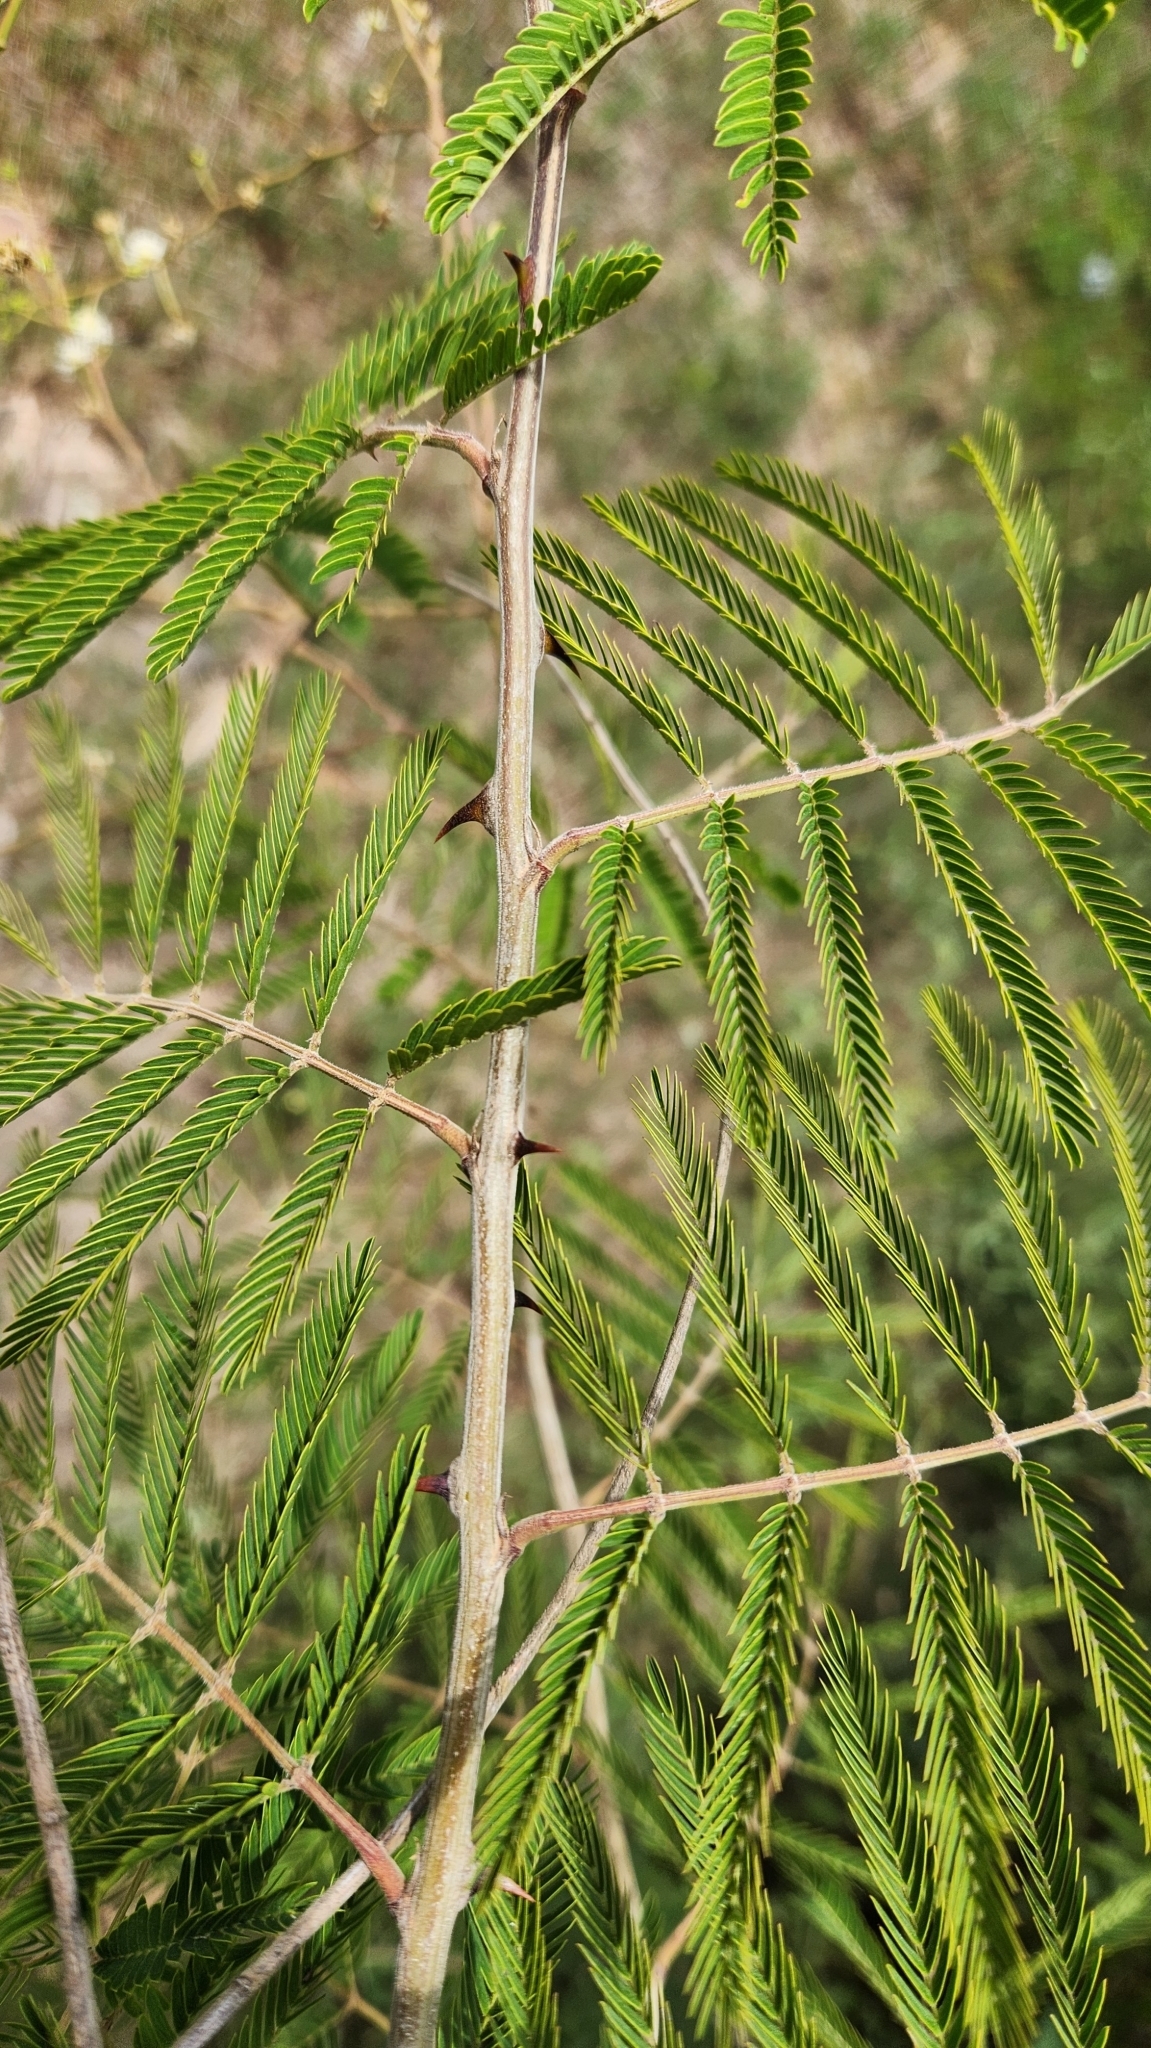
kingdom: Plantae
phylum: Tracheophyta
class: Magnoliopsida
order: Fabales
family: Fabaceae
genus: Mimosa
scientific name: Mimosa bimucronata
